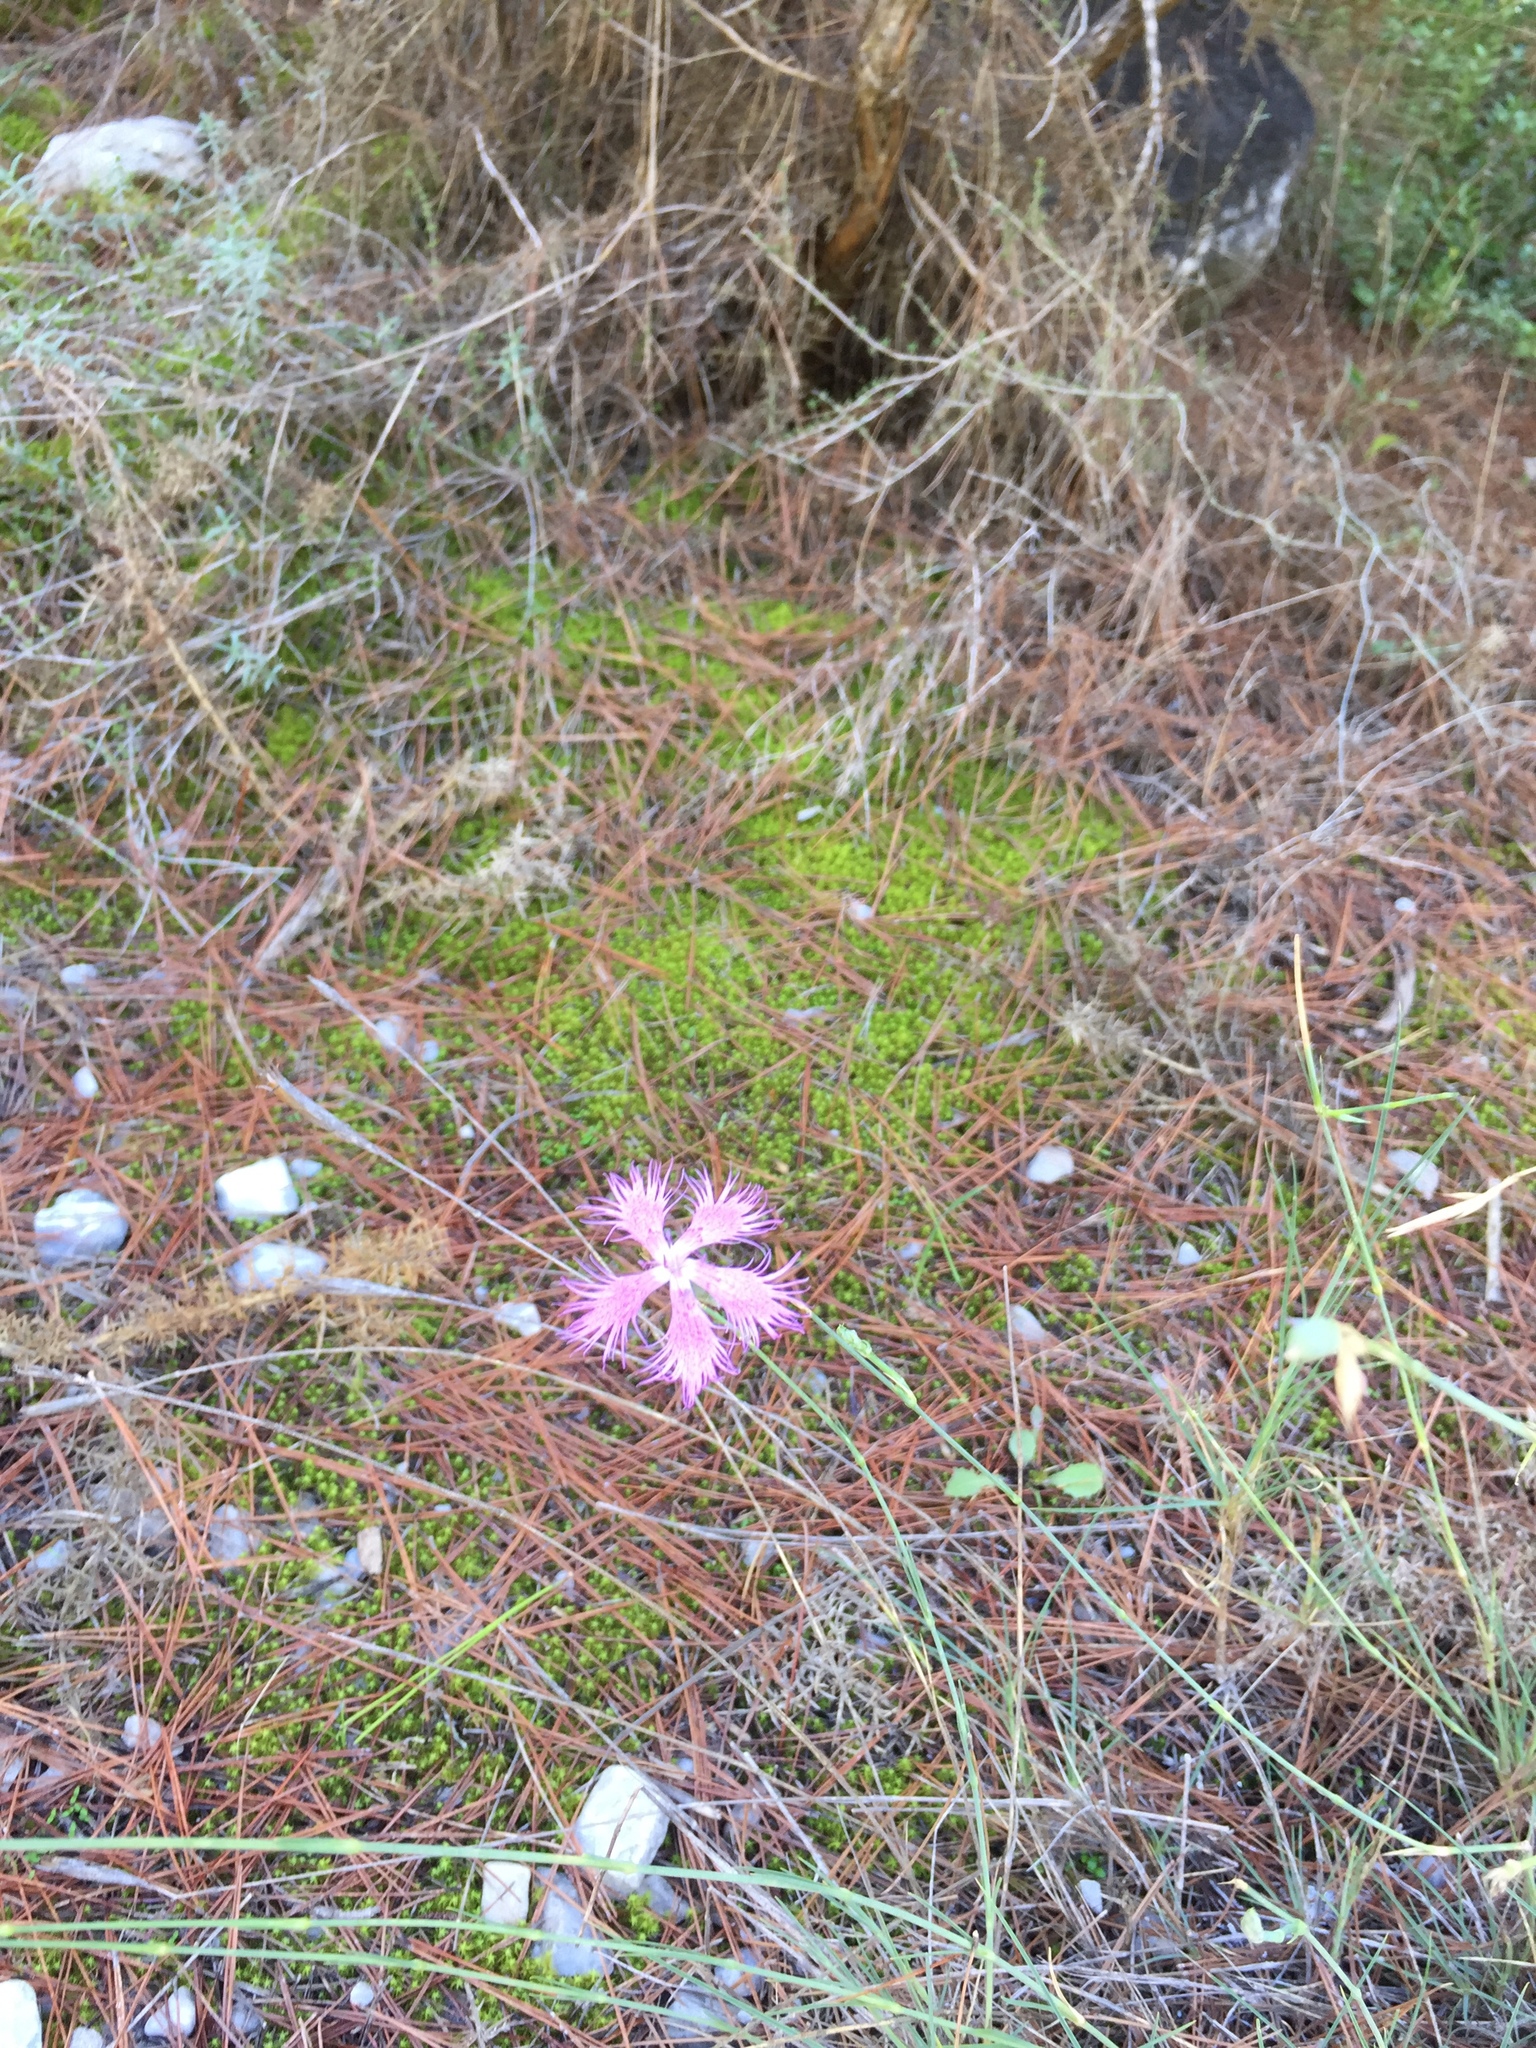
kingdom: Plantae
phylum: Tracheophyta
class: Magnoliopsida
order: Caryophyllales
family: Caryophyllaceae
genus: Dianthus
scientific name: Dianthus broteri
